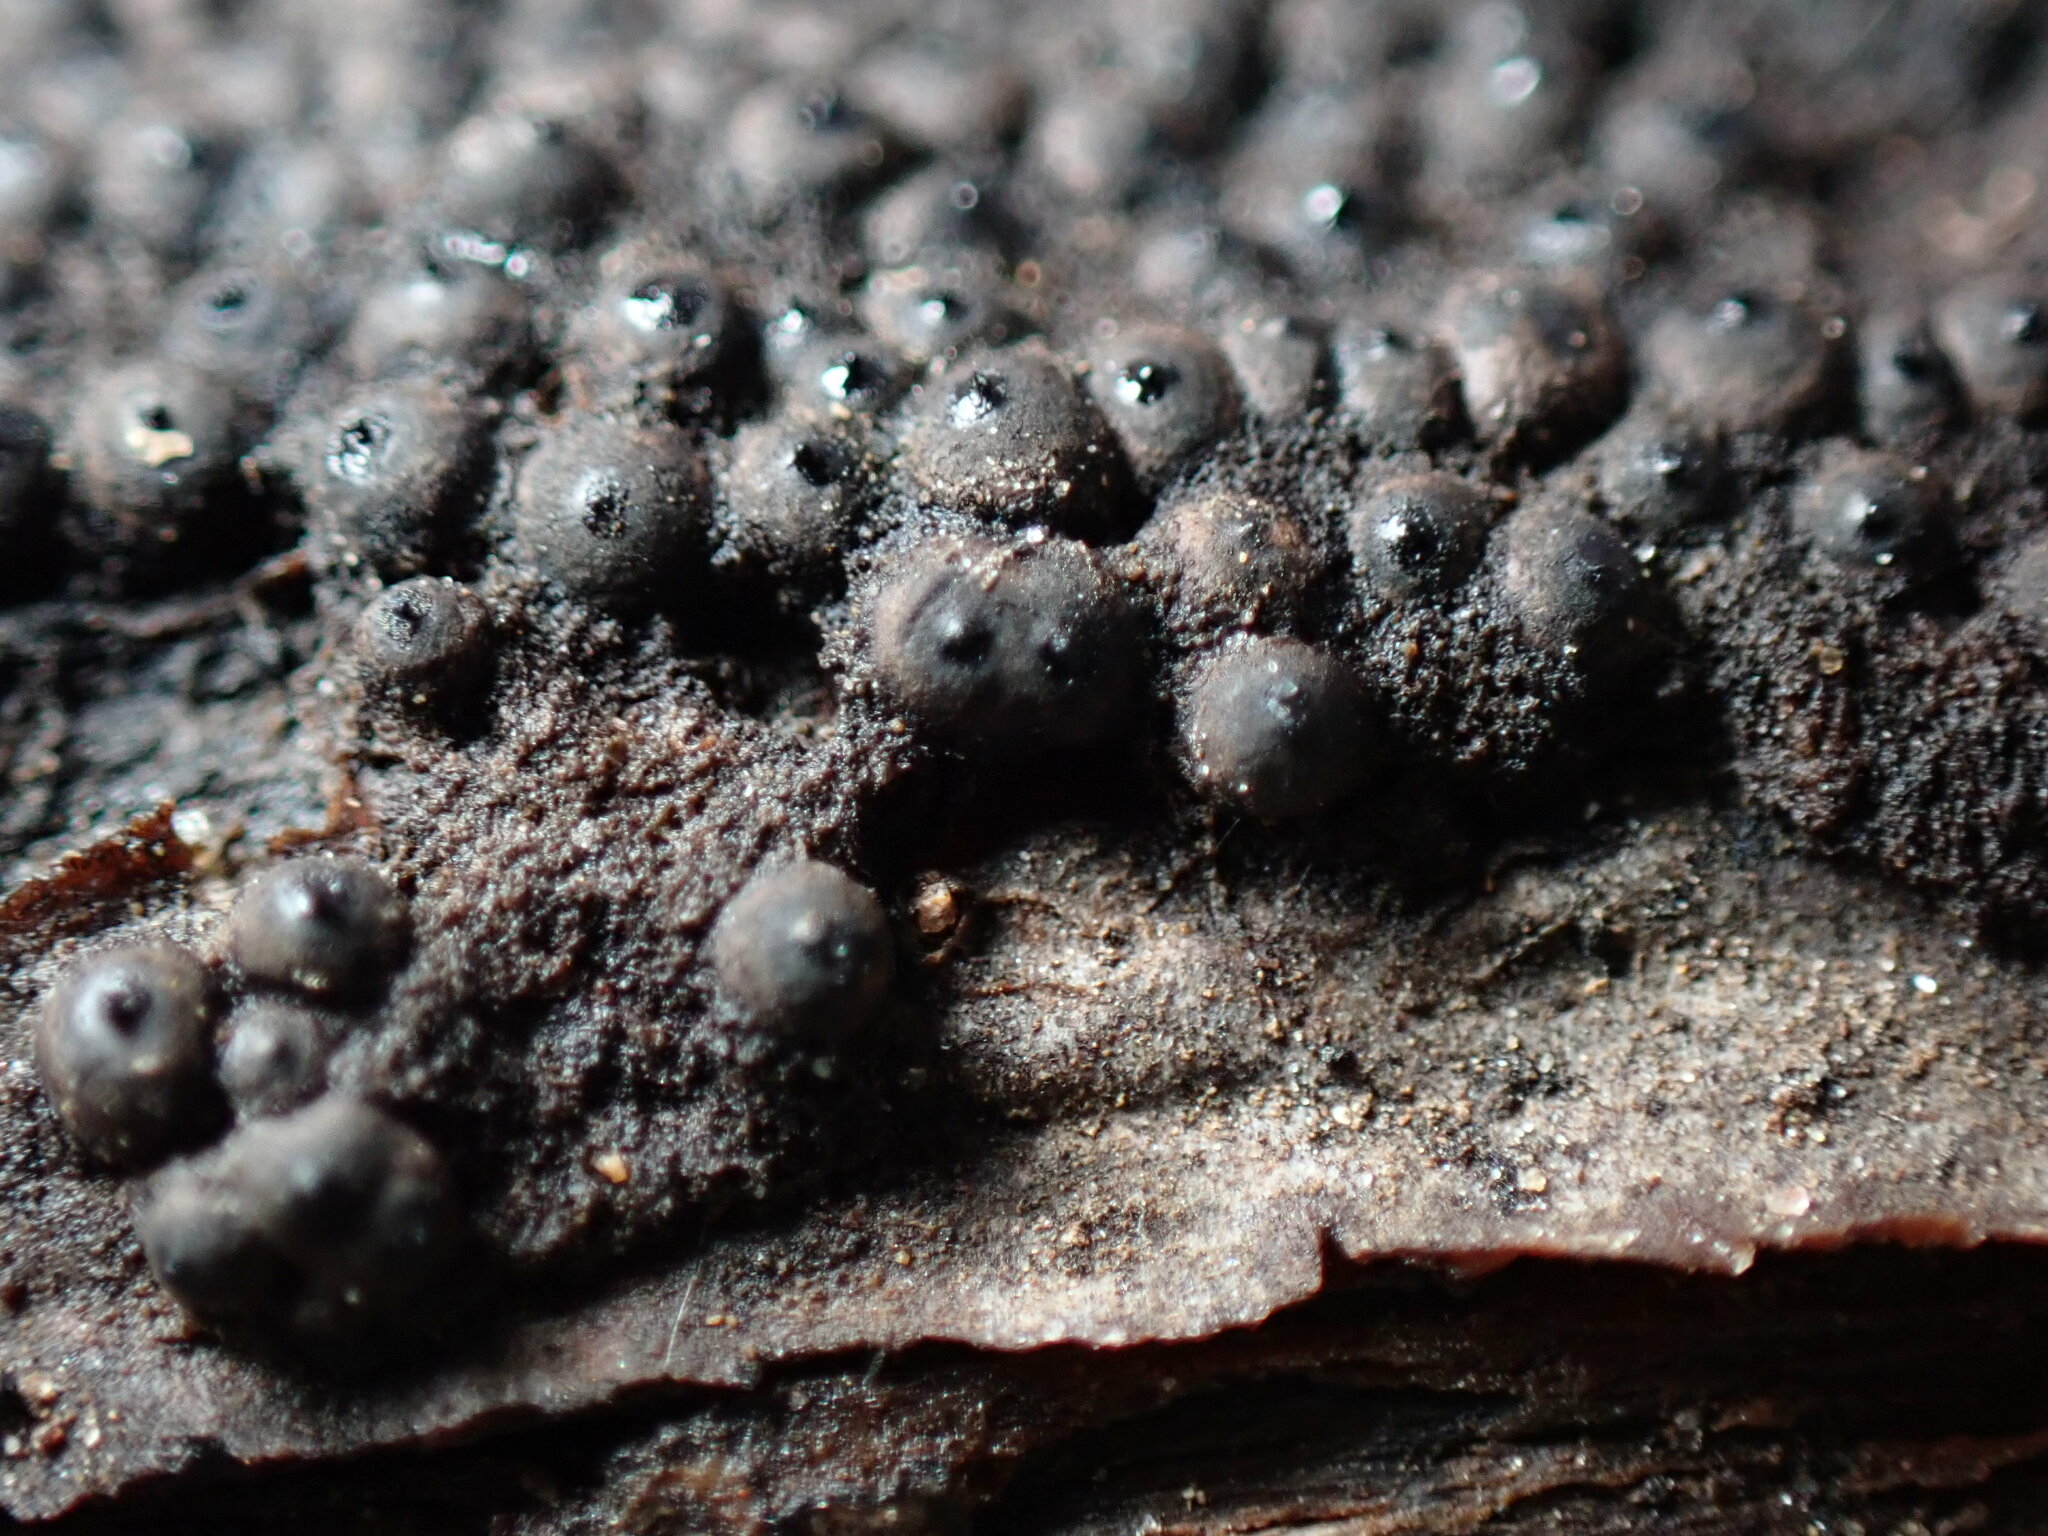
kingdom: Fungi
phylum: Ascomycota
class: Sordariomycetes
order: Xylariales
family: Xylariaceae
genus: Rosellinia
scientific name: Rosellinia corticium
